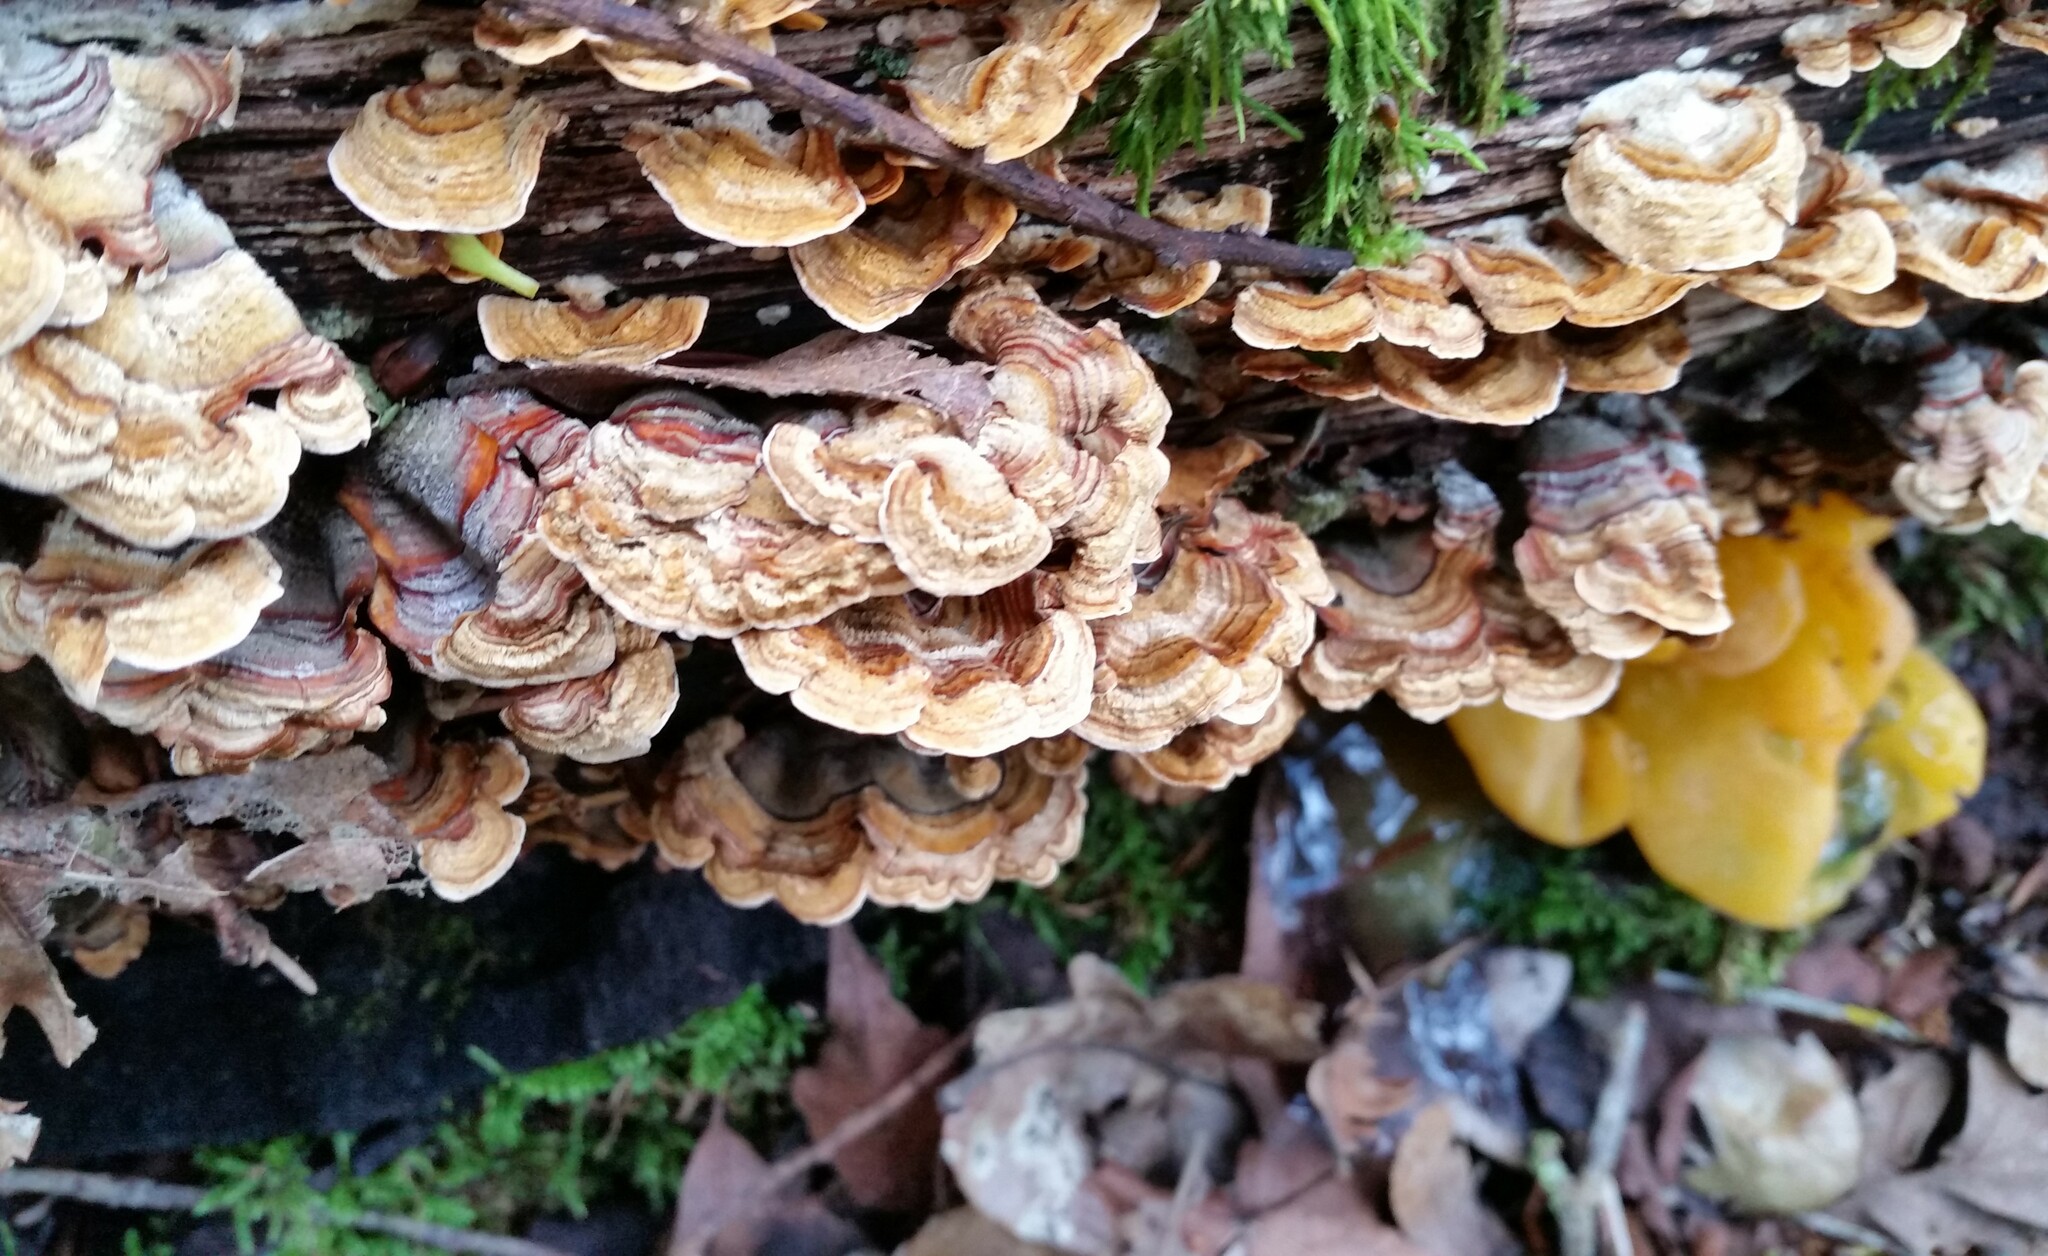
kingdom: Fungi
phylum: Basidiomycota
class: Agaricomycetes
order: Russulales
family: Stereaceae
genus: Stereum
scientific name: Stereum hirsutum
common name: Hairy curtain crust
